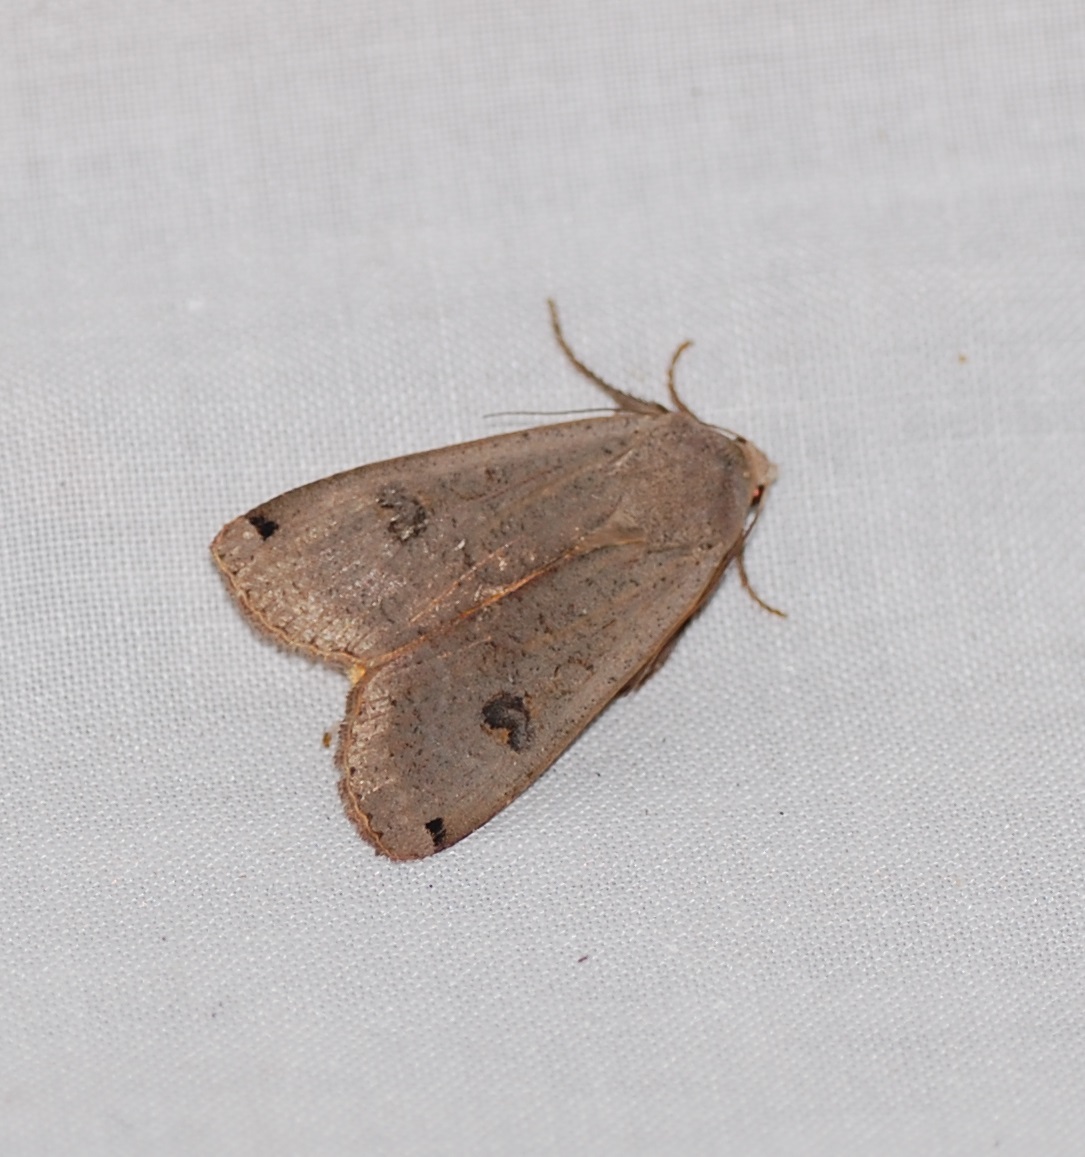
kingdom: Animalia
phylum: Arthropoda
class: Insecta
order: Lepidoptera
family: Noctuidae
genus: Noctua
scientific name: Noctua pronuba
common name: Large yellow underwing
